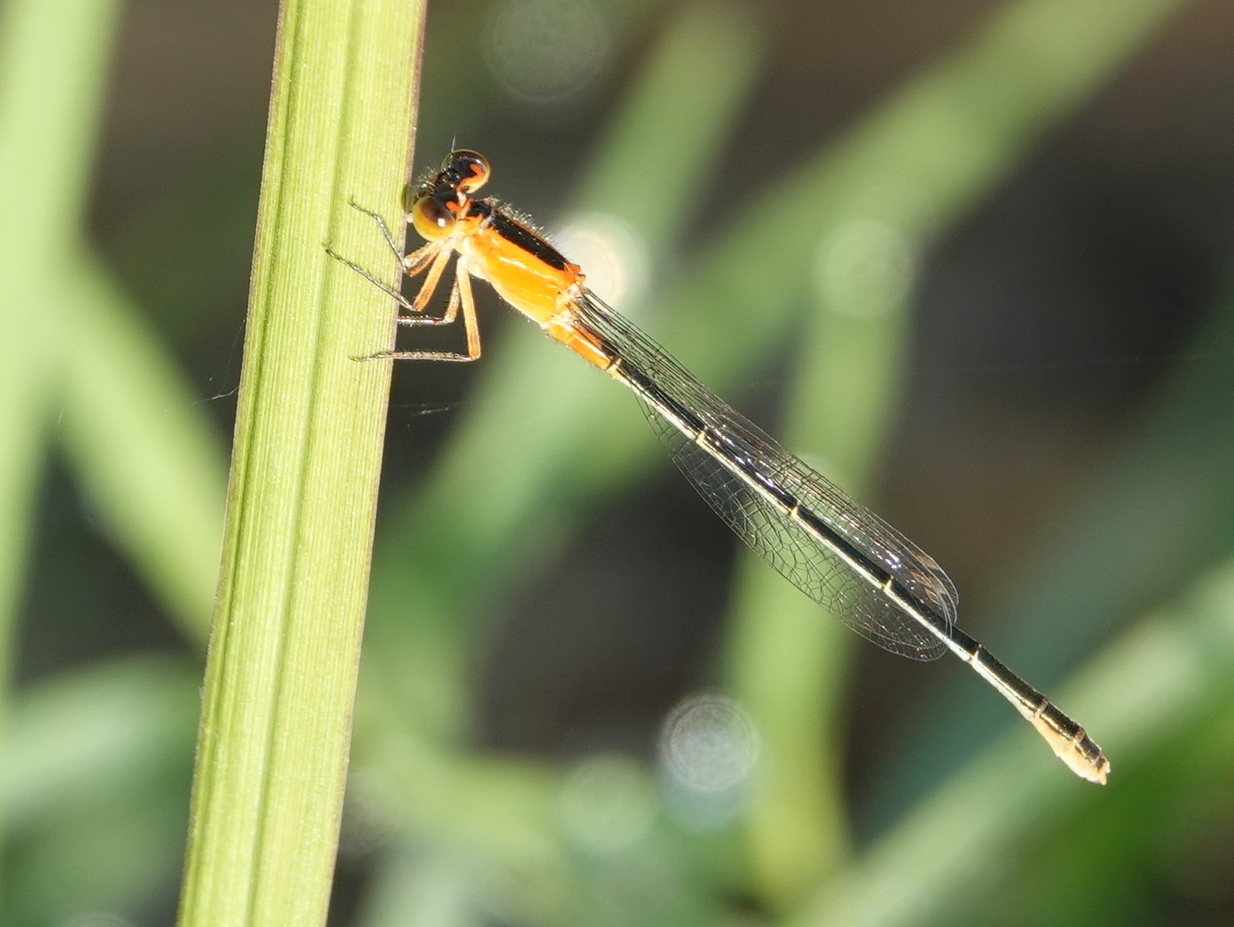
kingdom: Animalia
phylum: Arthropoda
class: Insecta
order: Odonata
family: Coenagrionidae
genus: Ischnura
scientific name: Ischnura ramburii
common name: Rambur's forktail
